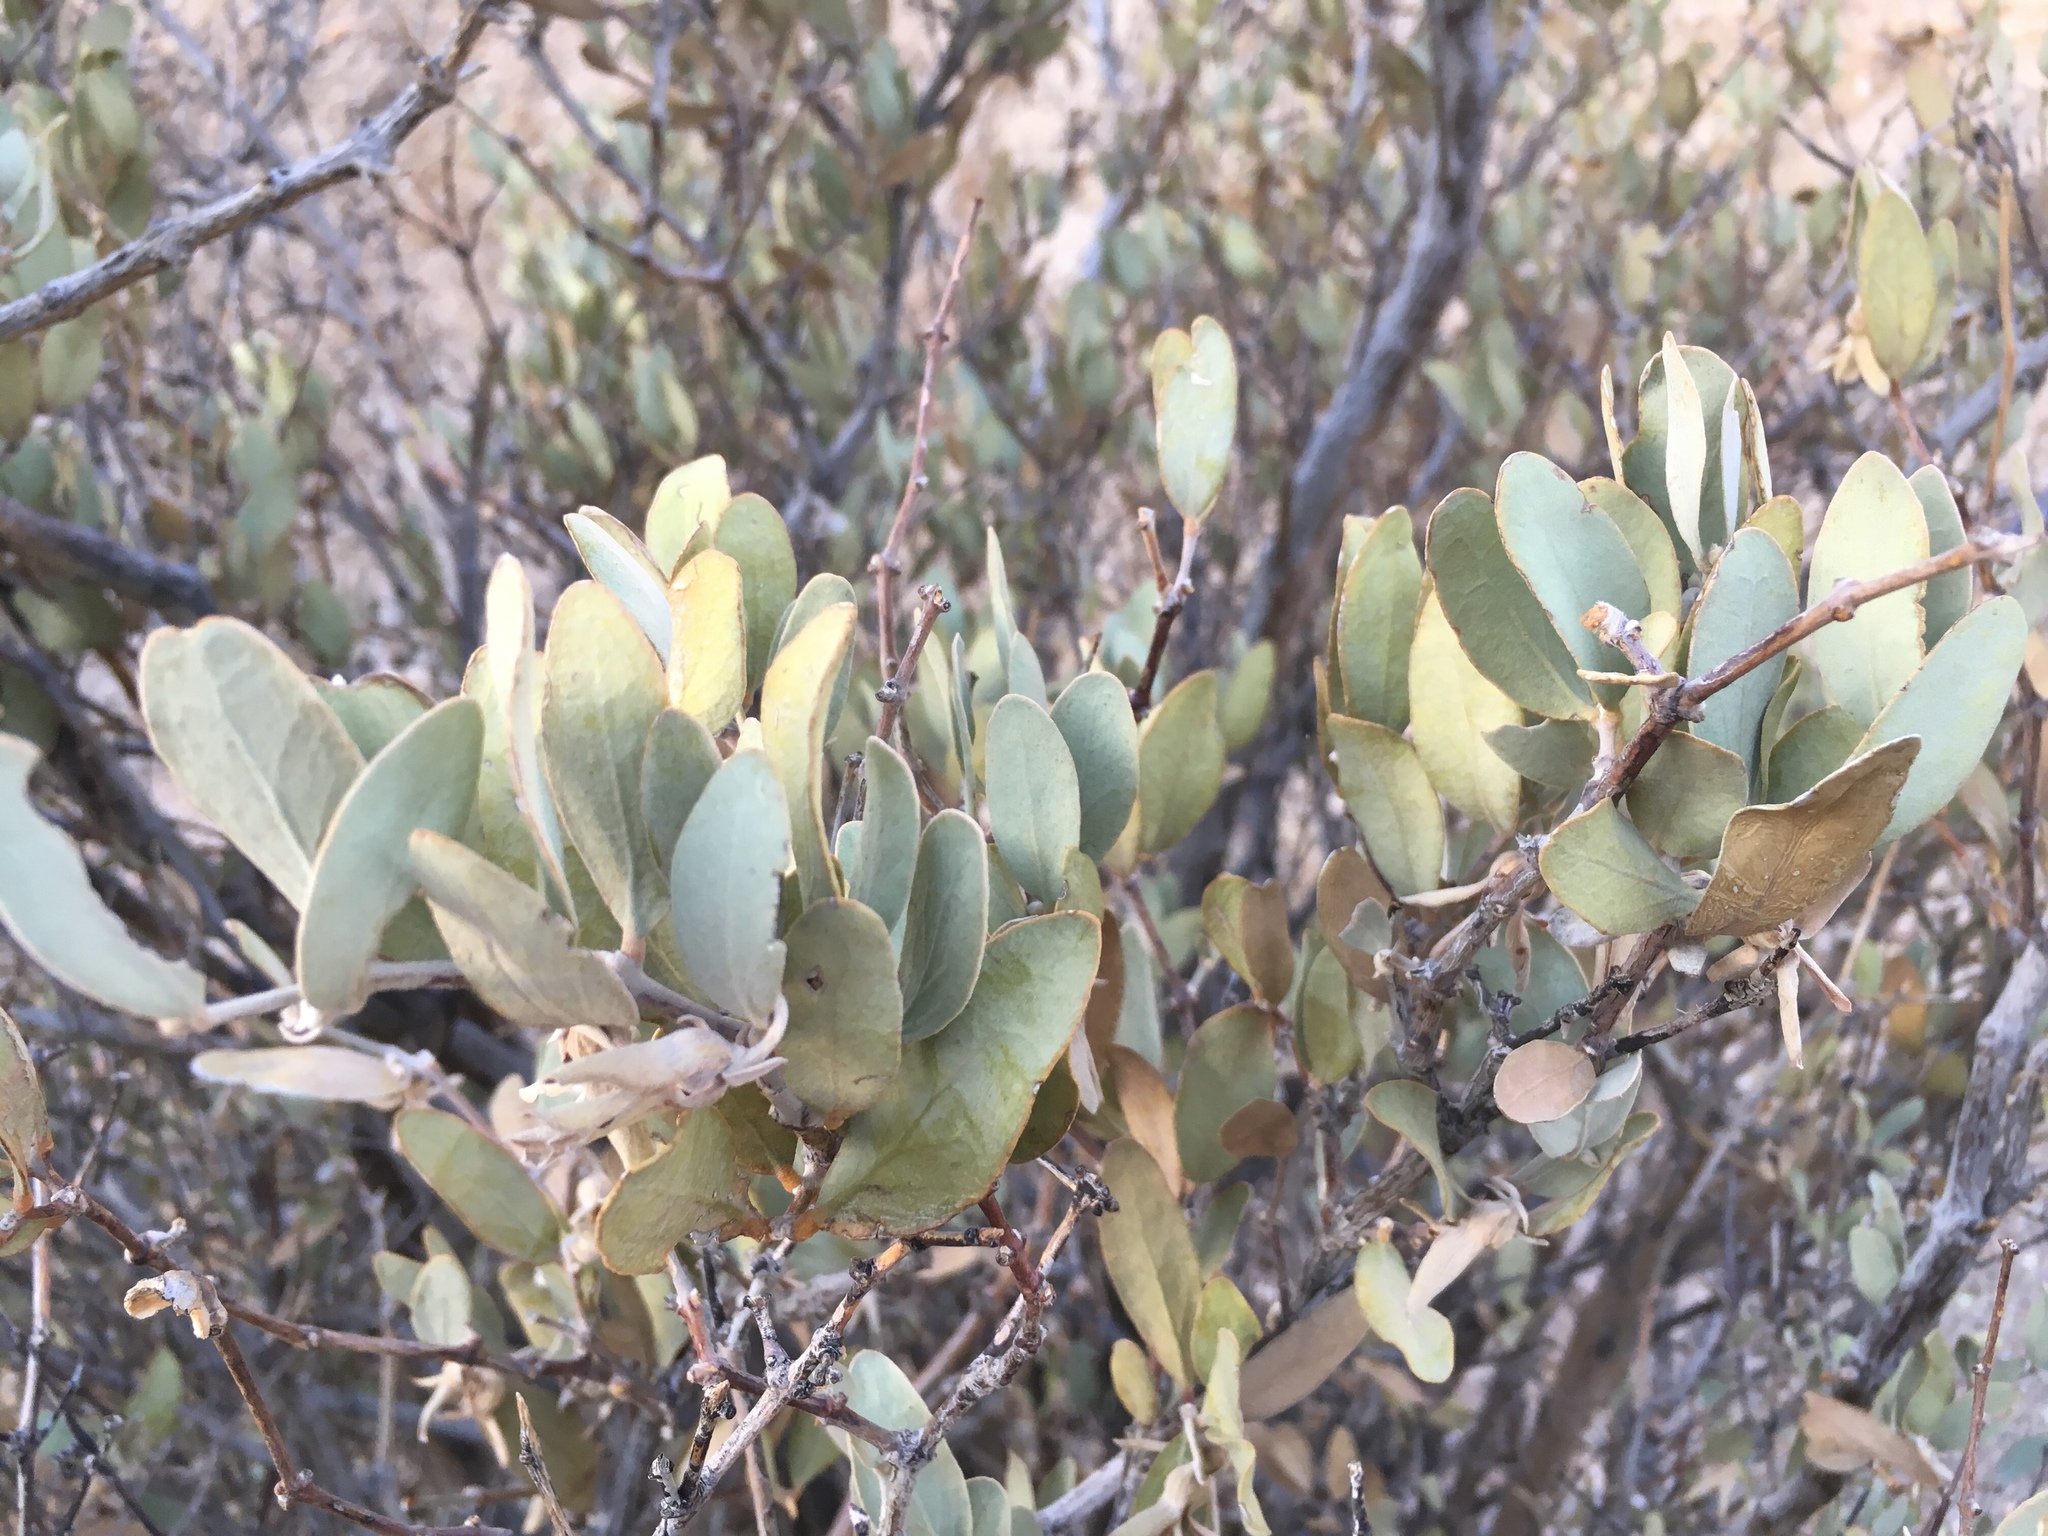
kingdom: Plantae
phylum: Tracheophyta
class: Magnoliopsida
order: Caryophyllales
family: Simmondsiaceae
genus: Simmondsia
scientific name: Simmondsia chinensis
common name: Jojoba
